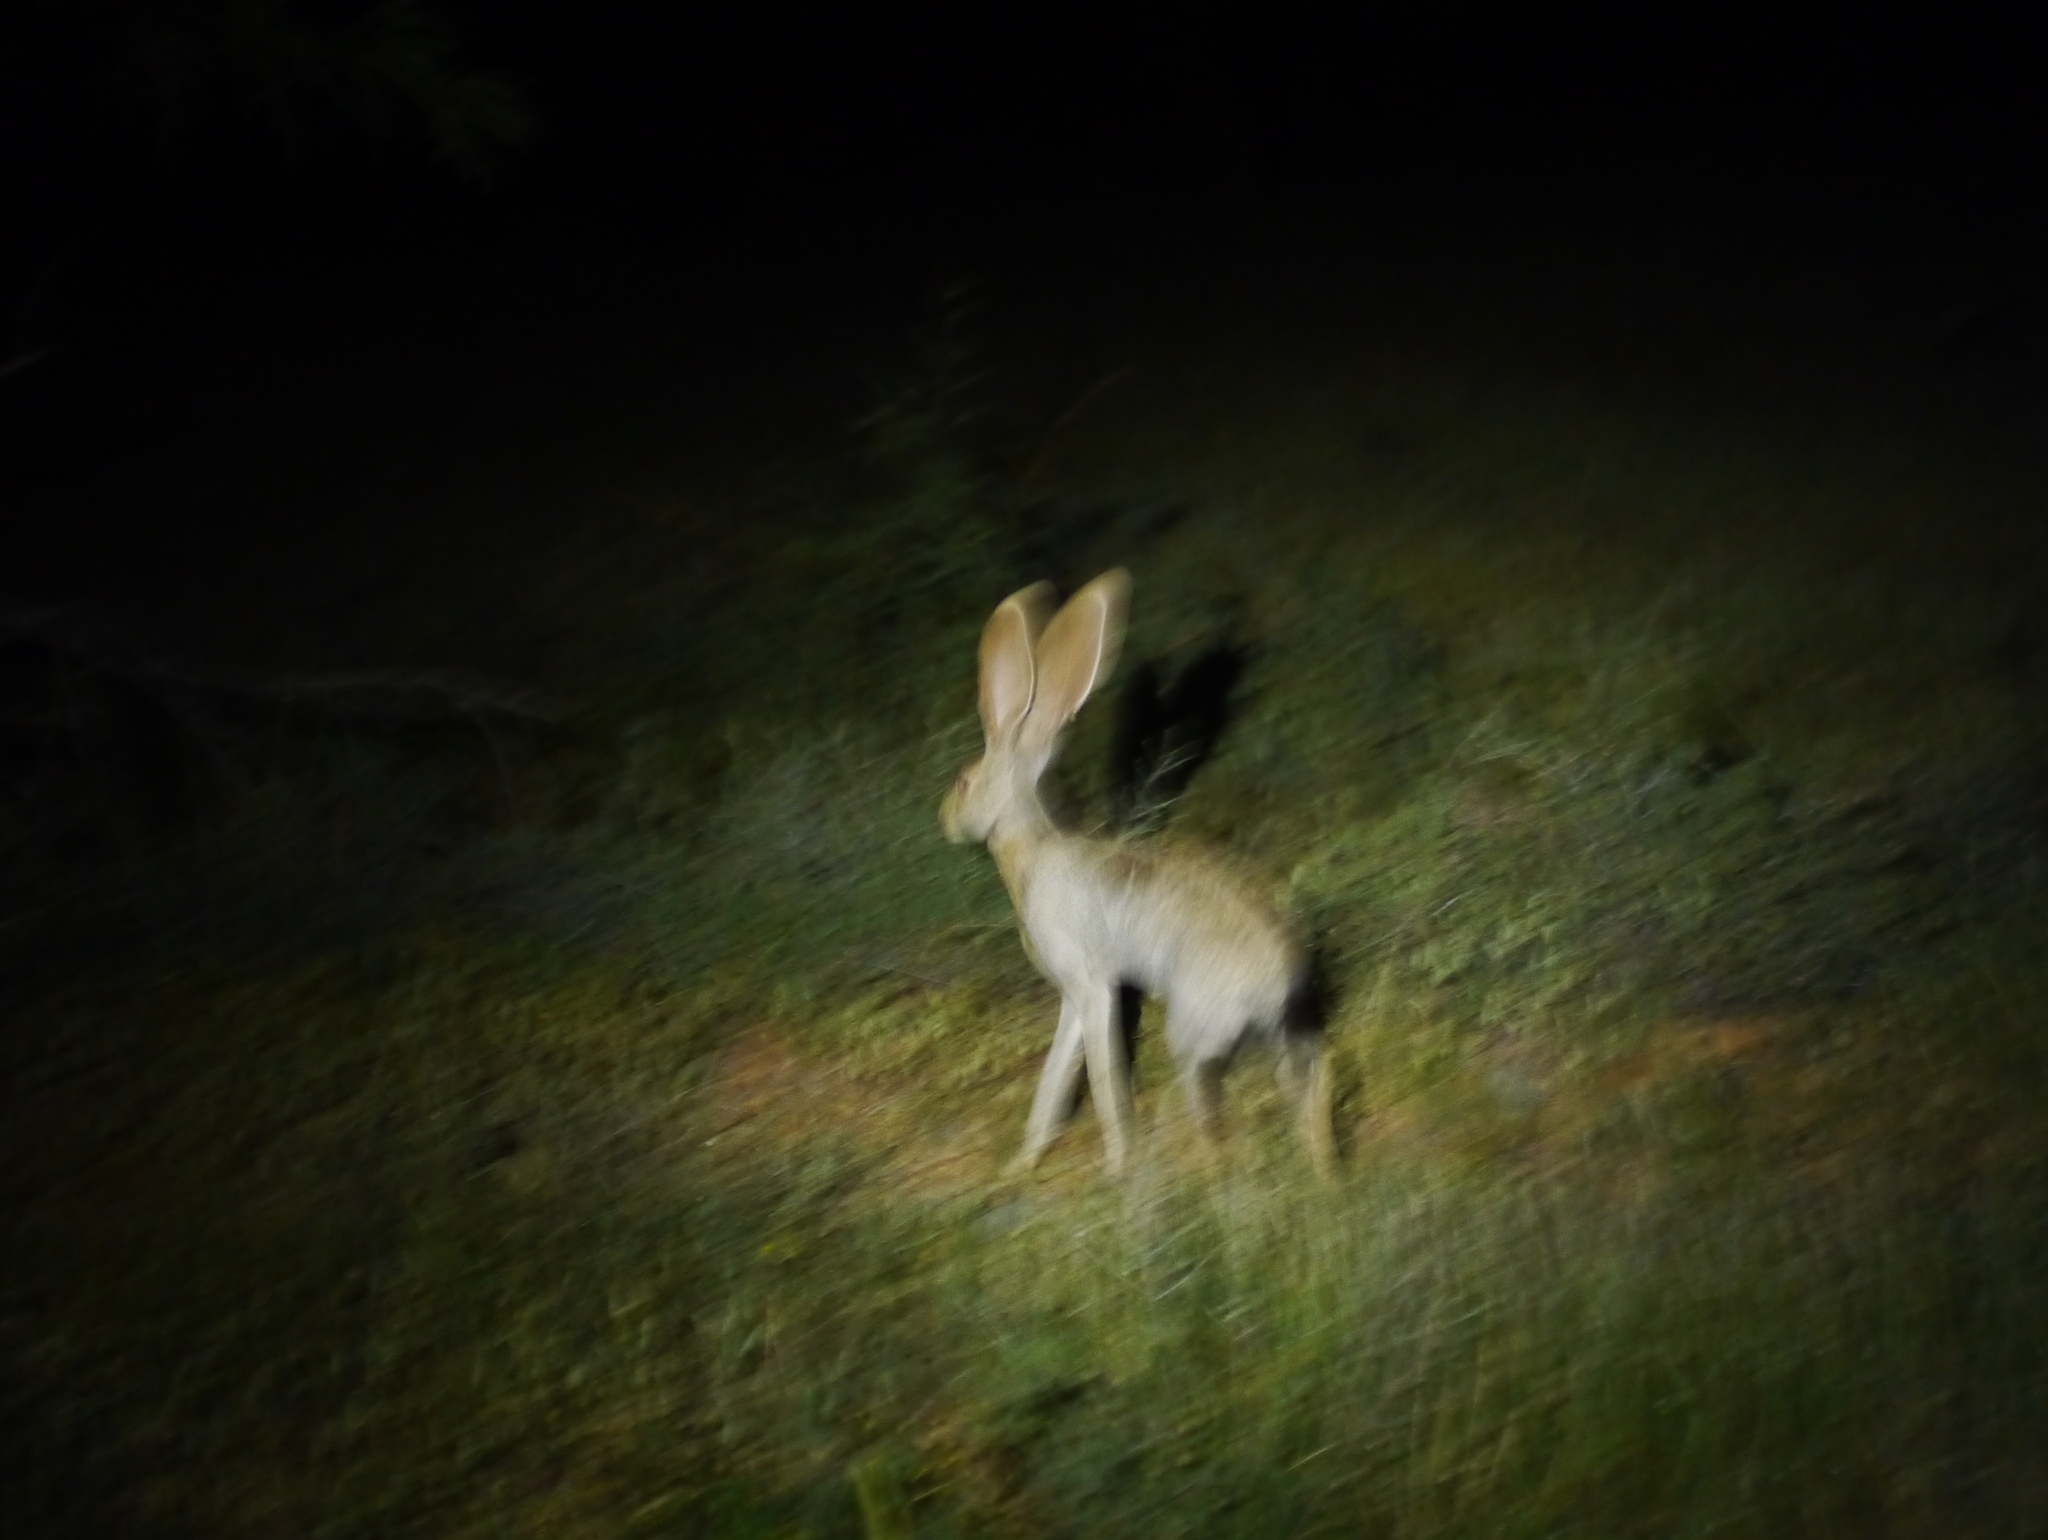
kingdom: Animalia
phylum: Chordata
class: Mammalia
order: Lagomorpha
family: Leporidae
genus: Lepus
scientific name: Lepus alleni
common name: Antelope jackrabbit
